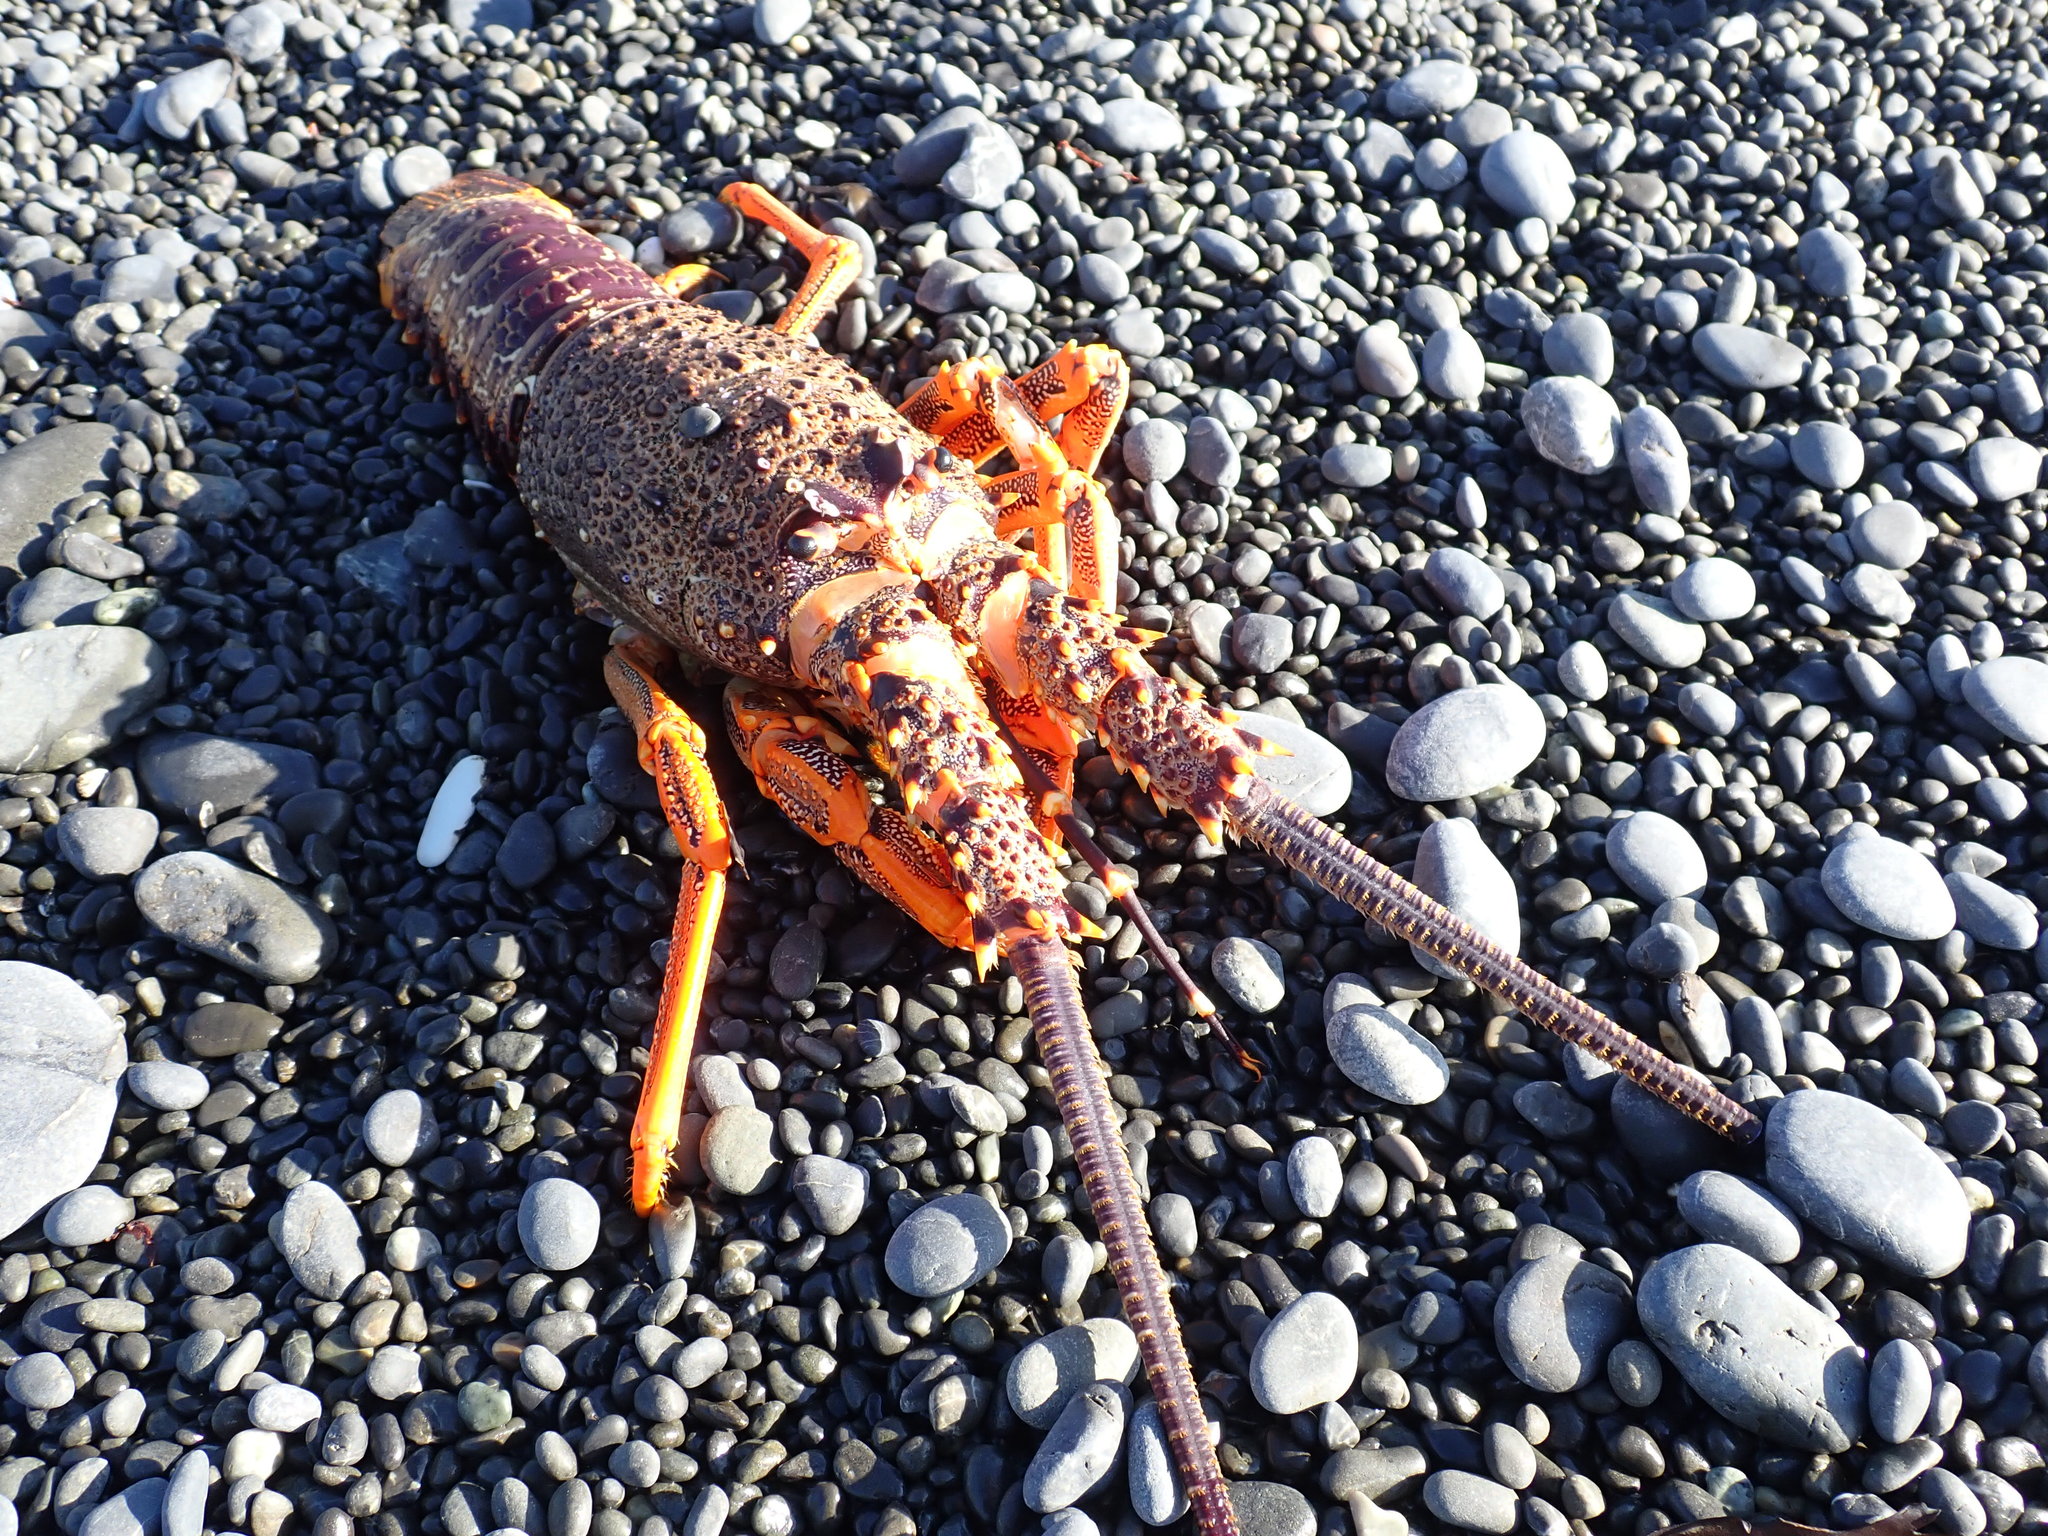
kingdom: Animalia
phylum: Arthropoda
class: Malacostraca
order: Decapoda
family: Palinuridae
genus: Jasus
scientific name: Jasus edwardsii
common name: Red rock lobster
